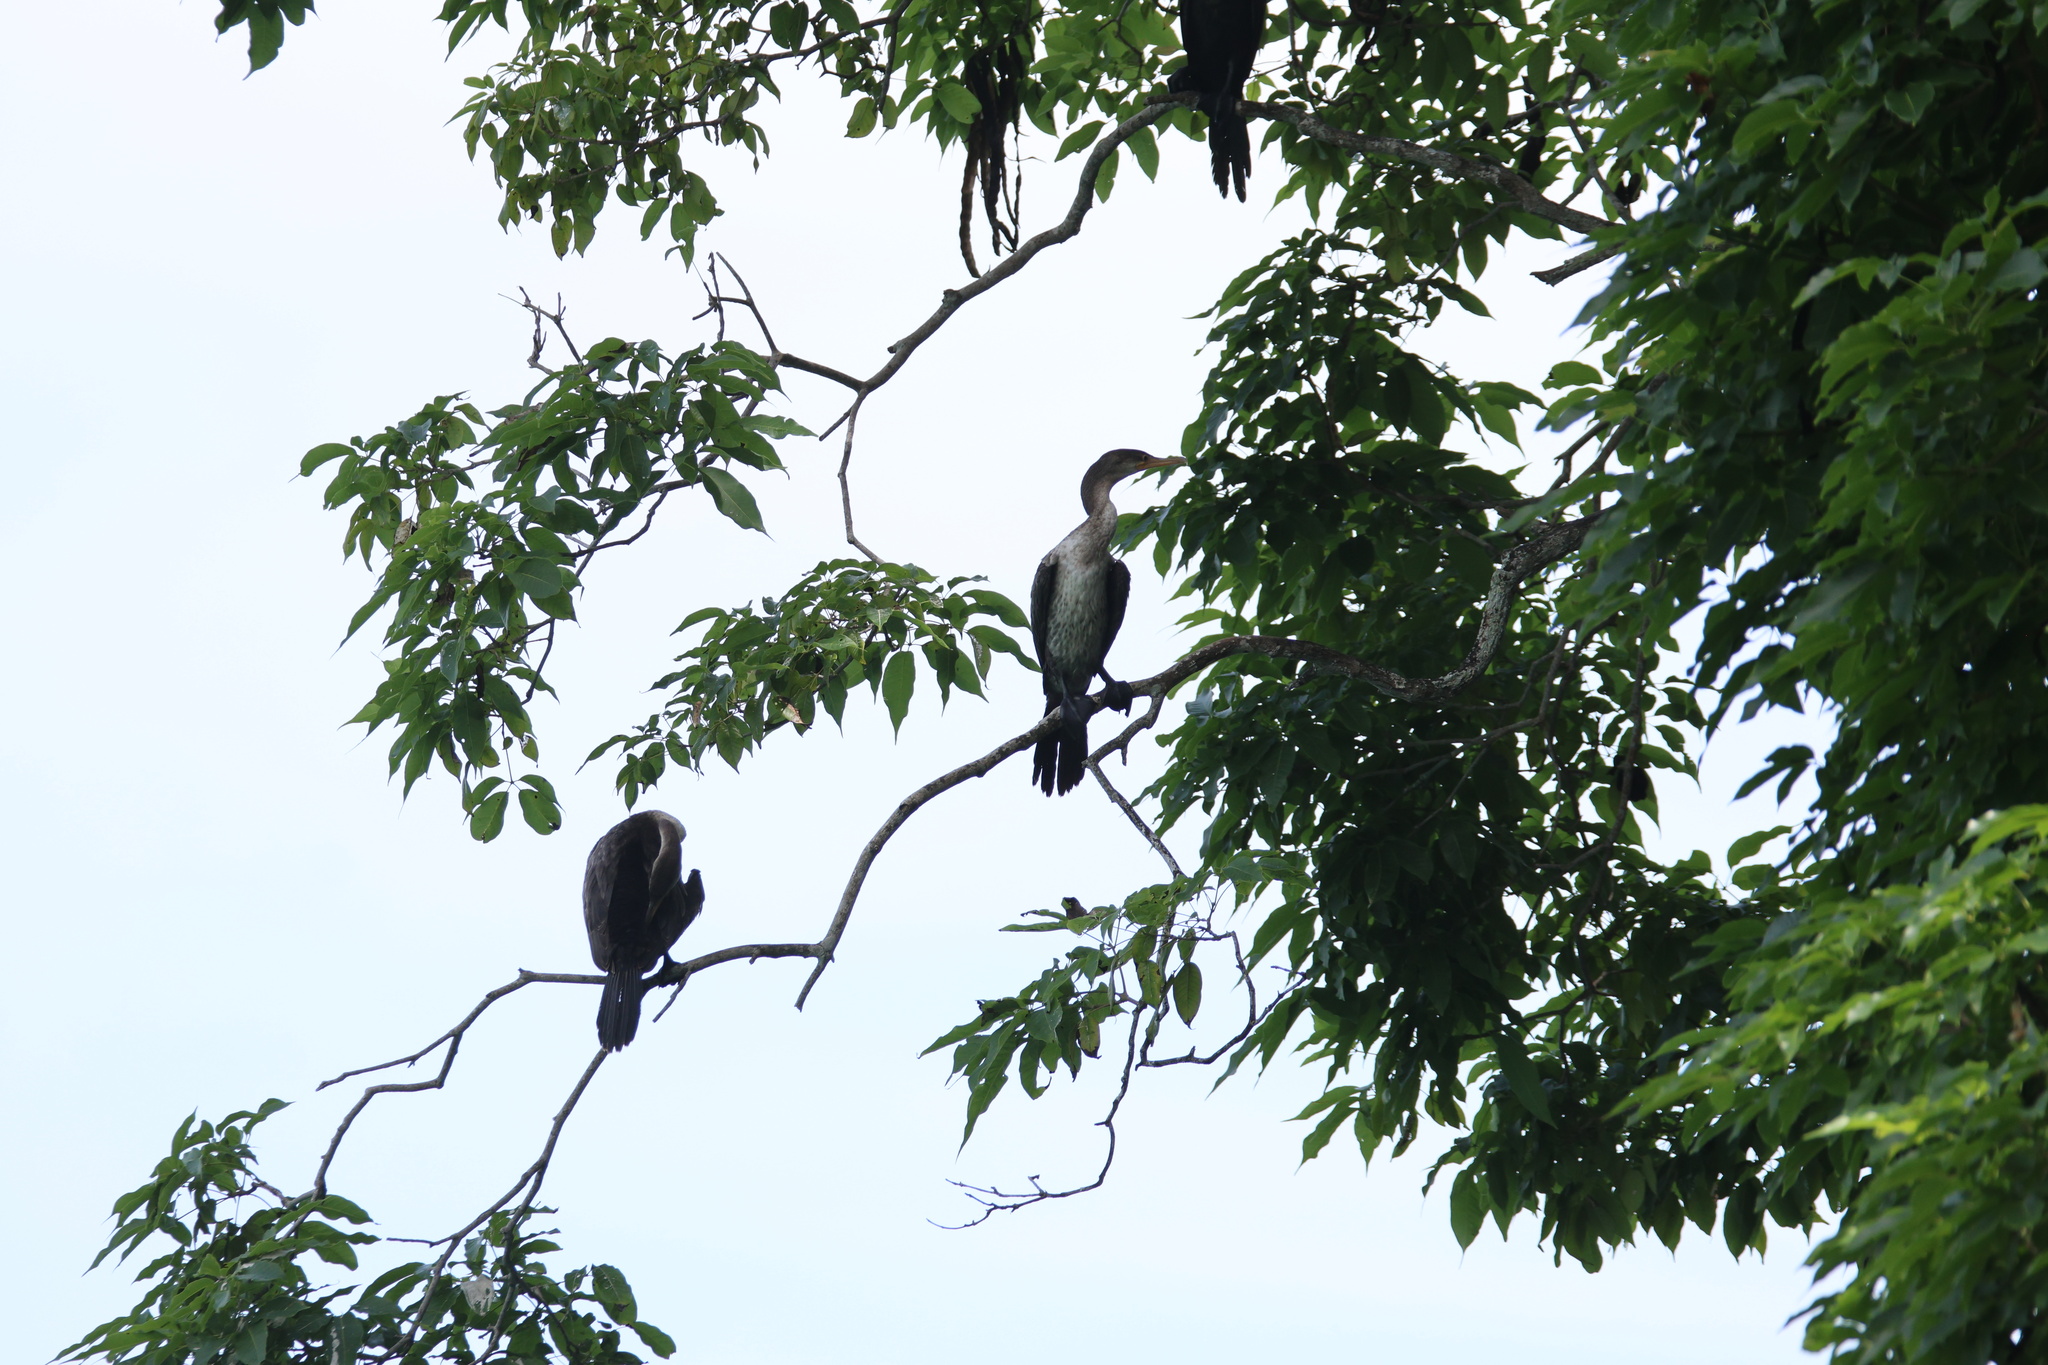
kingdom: Animalia
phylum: Chordata
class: Aves
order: Suliformes
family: Phalacrocoracidae
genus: Phalacrocorax
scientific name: Phalacrocorax brasilianus
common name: Neotropic cormorant
